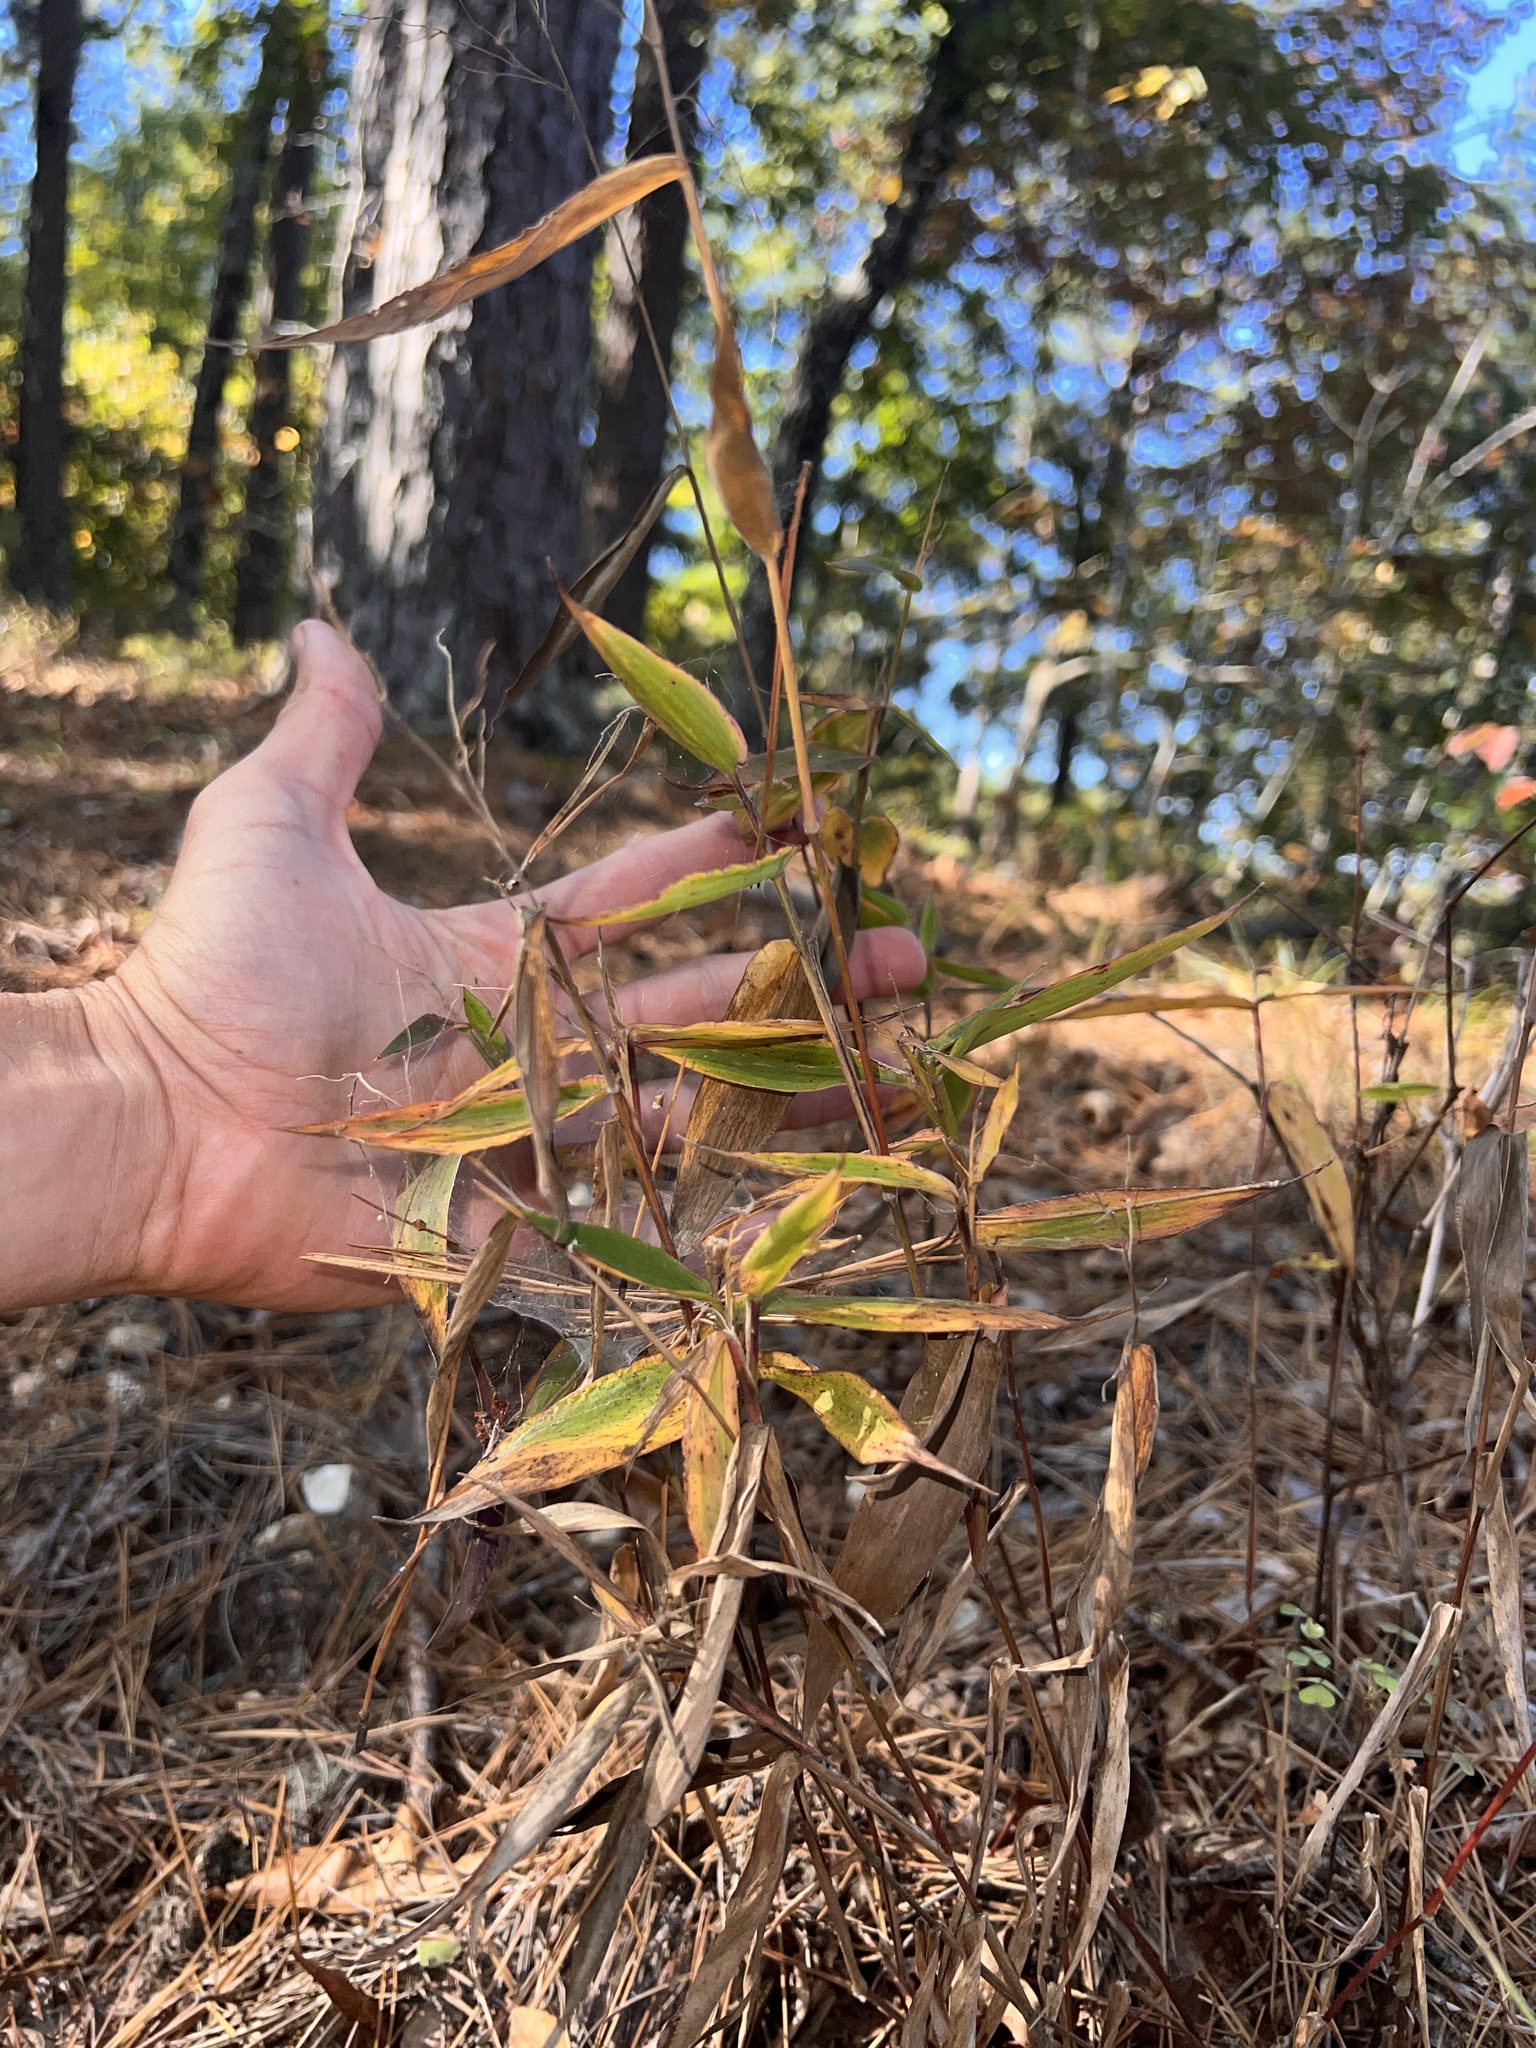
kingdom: Plantae
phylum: Tracheophyta
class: Liliopsida
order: Poales
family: Poaceae
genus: Dichanthelium
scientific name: Dichanthelium boscii
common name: Bosc's panic grass
